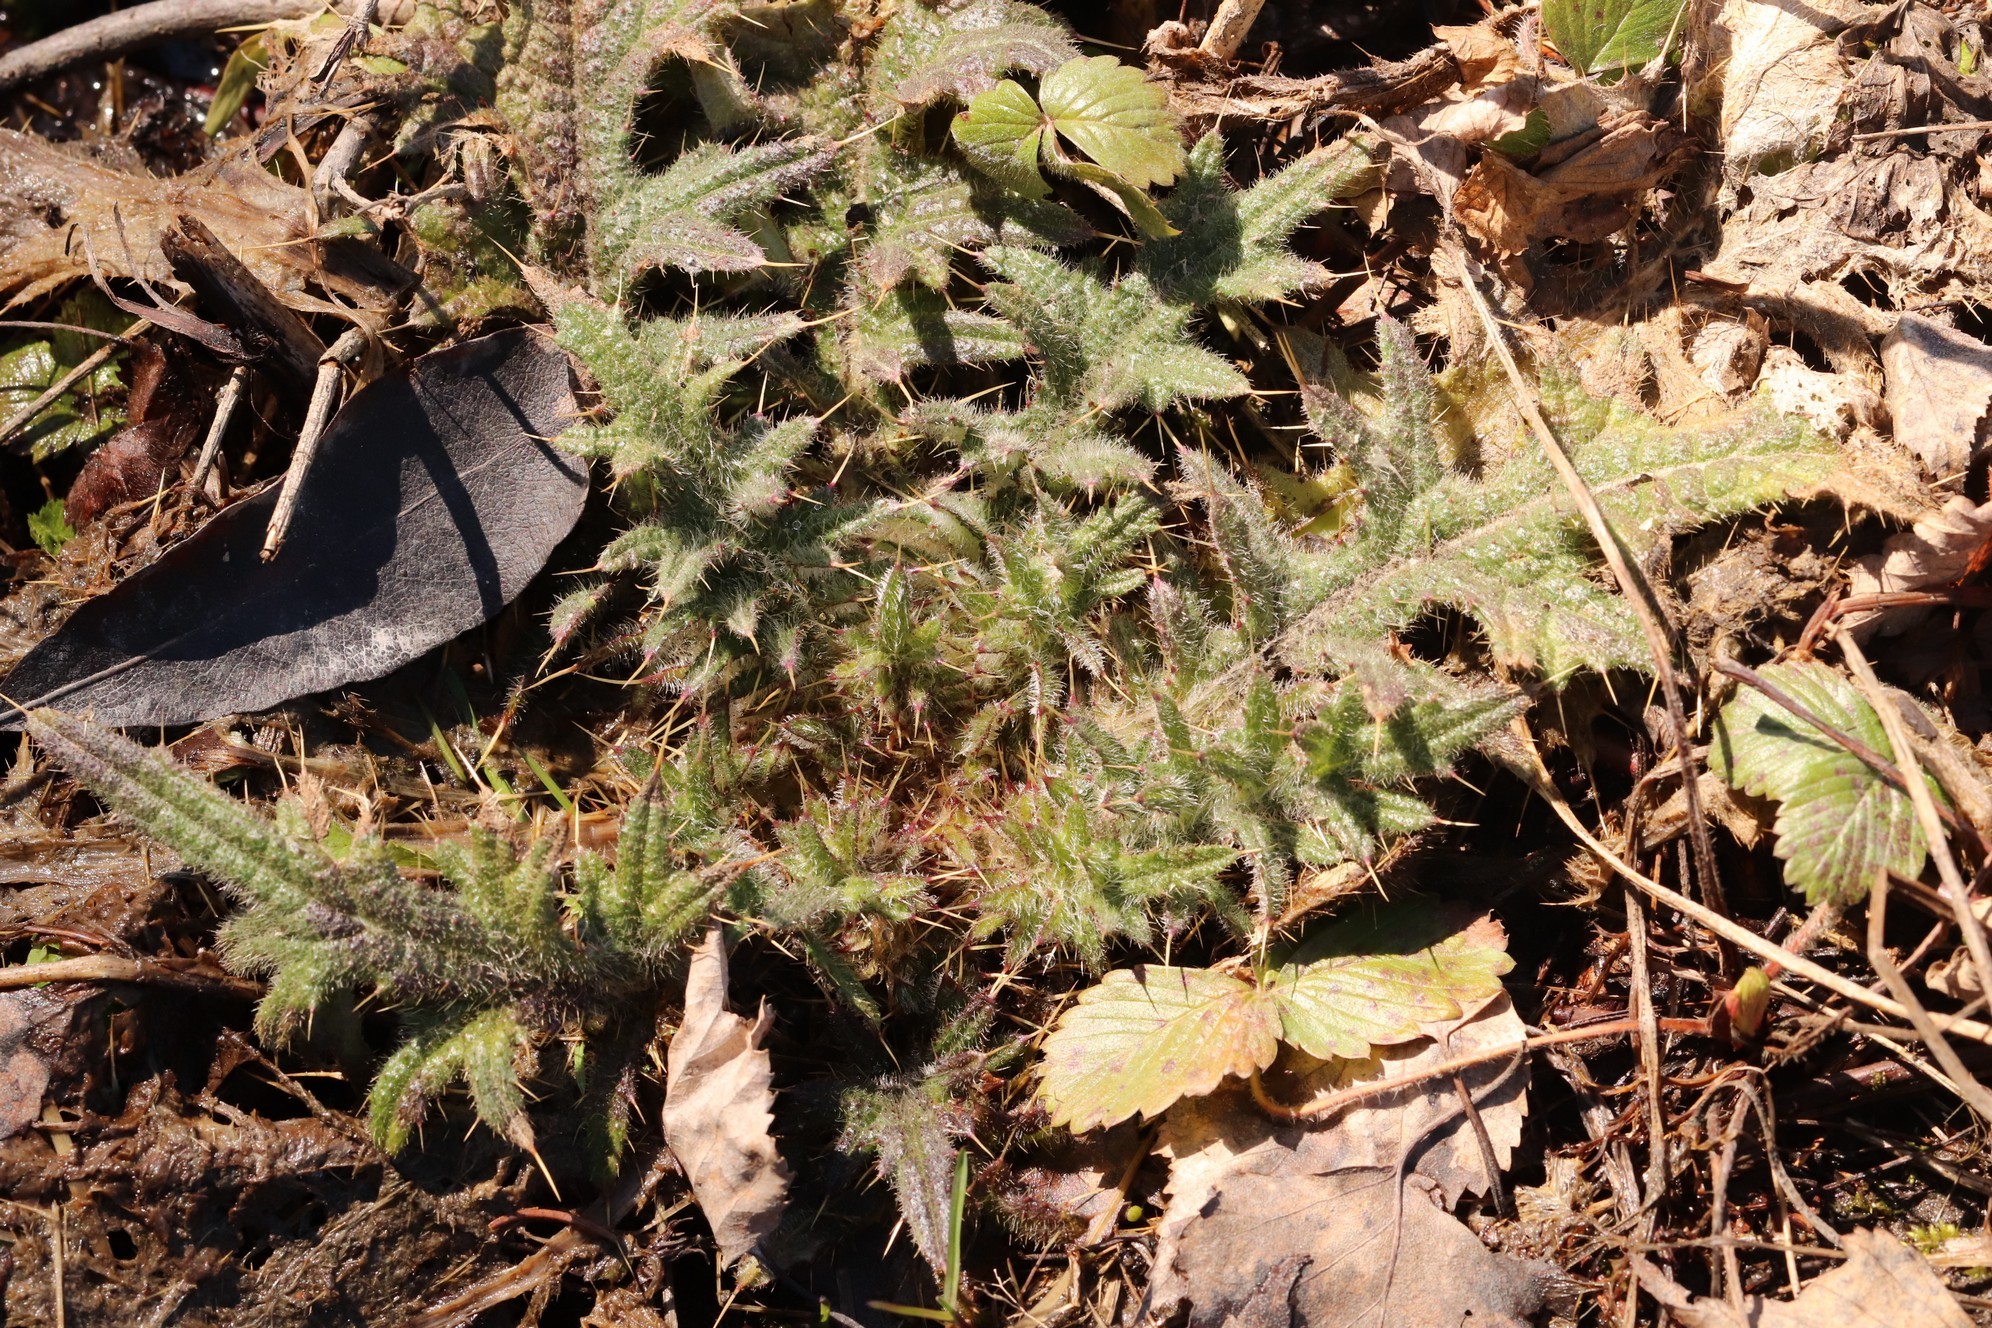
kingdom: Plantae
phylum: Tracheophyta
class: Magnoliopsida
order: Asterales
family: Asteraceae
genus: Cirsium
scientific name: Cirsium vulgare
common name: Bull thistle
